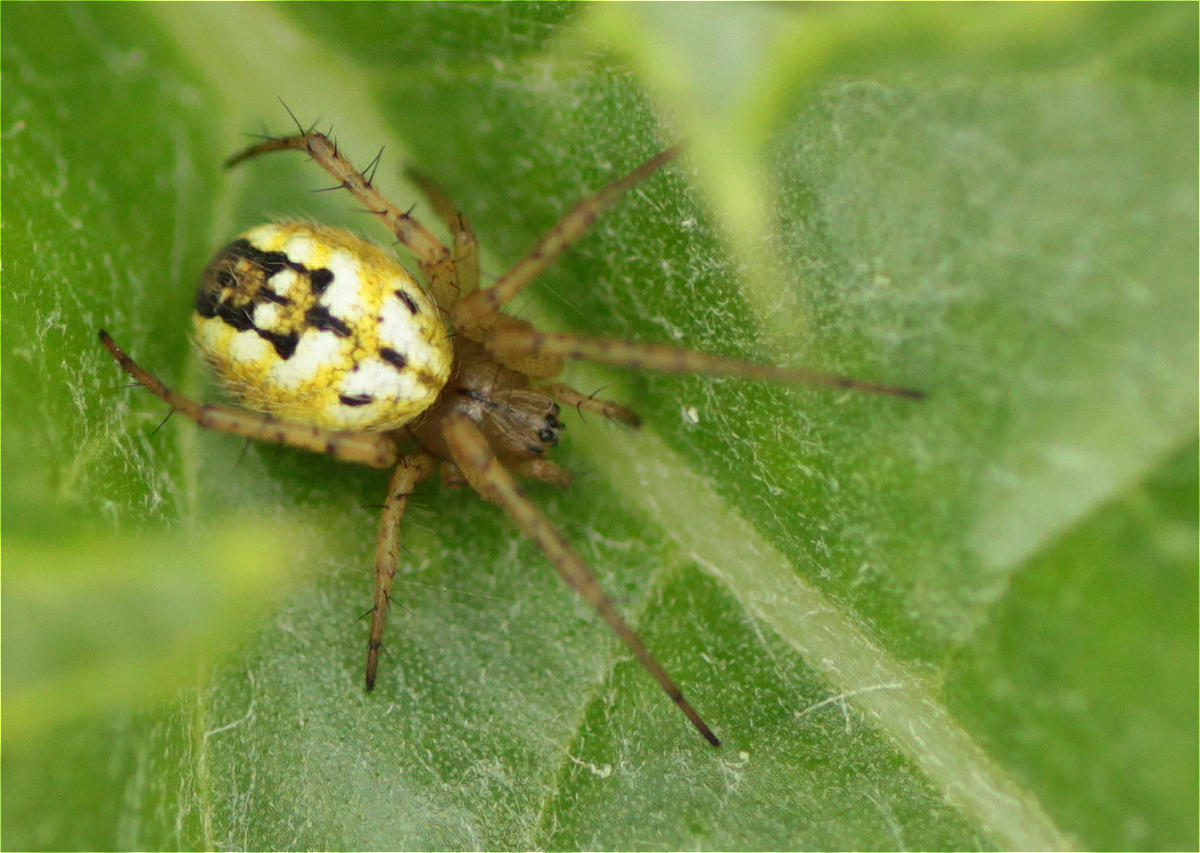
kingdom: Animalia
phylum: Arthropoda
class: Arachnida
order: Araneae
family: Araneidae
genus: Mangora
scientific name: Mangora acalypha
